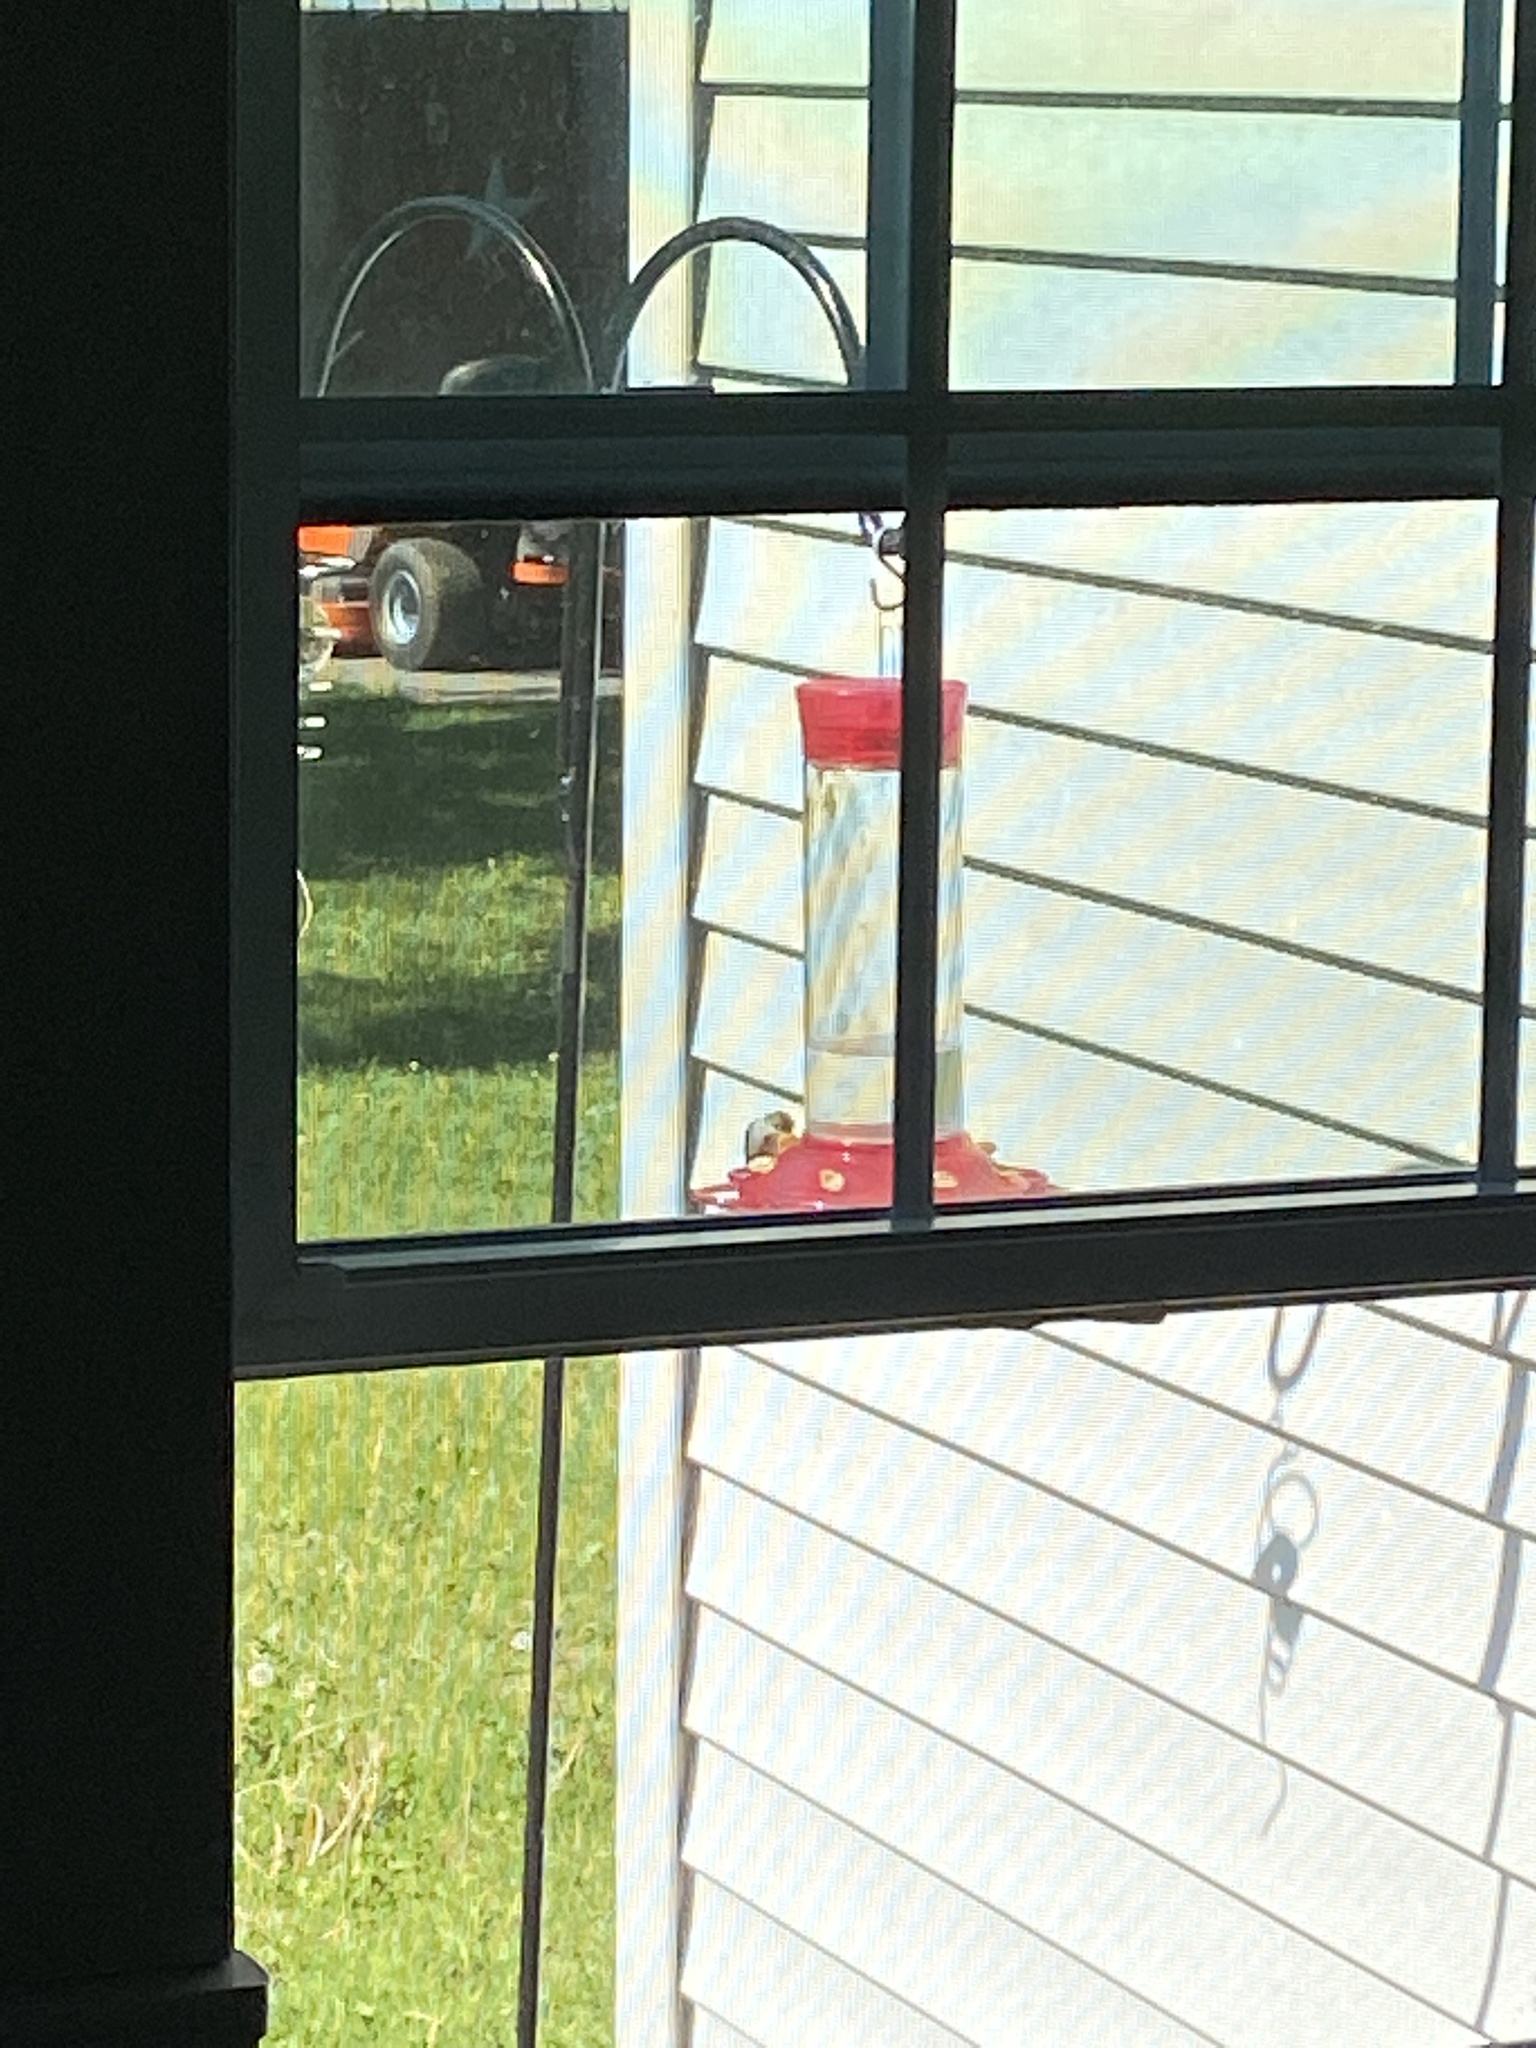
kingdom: Animalia
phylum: Chordata
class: Aves
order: Apodiformes
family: Trochilidae
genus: Archilochus
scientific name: Archilochus colubris
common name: Ruby-throated hummingbird
